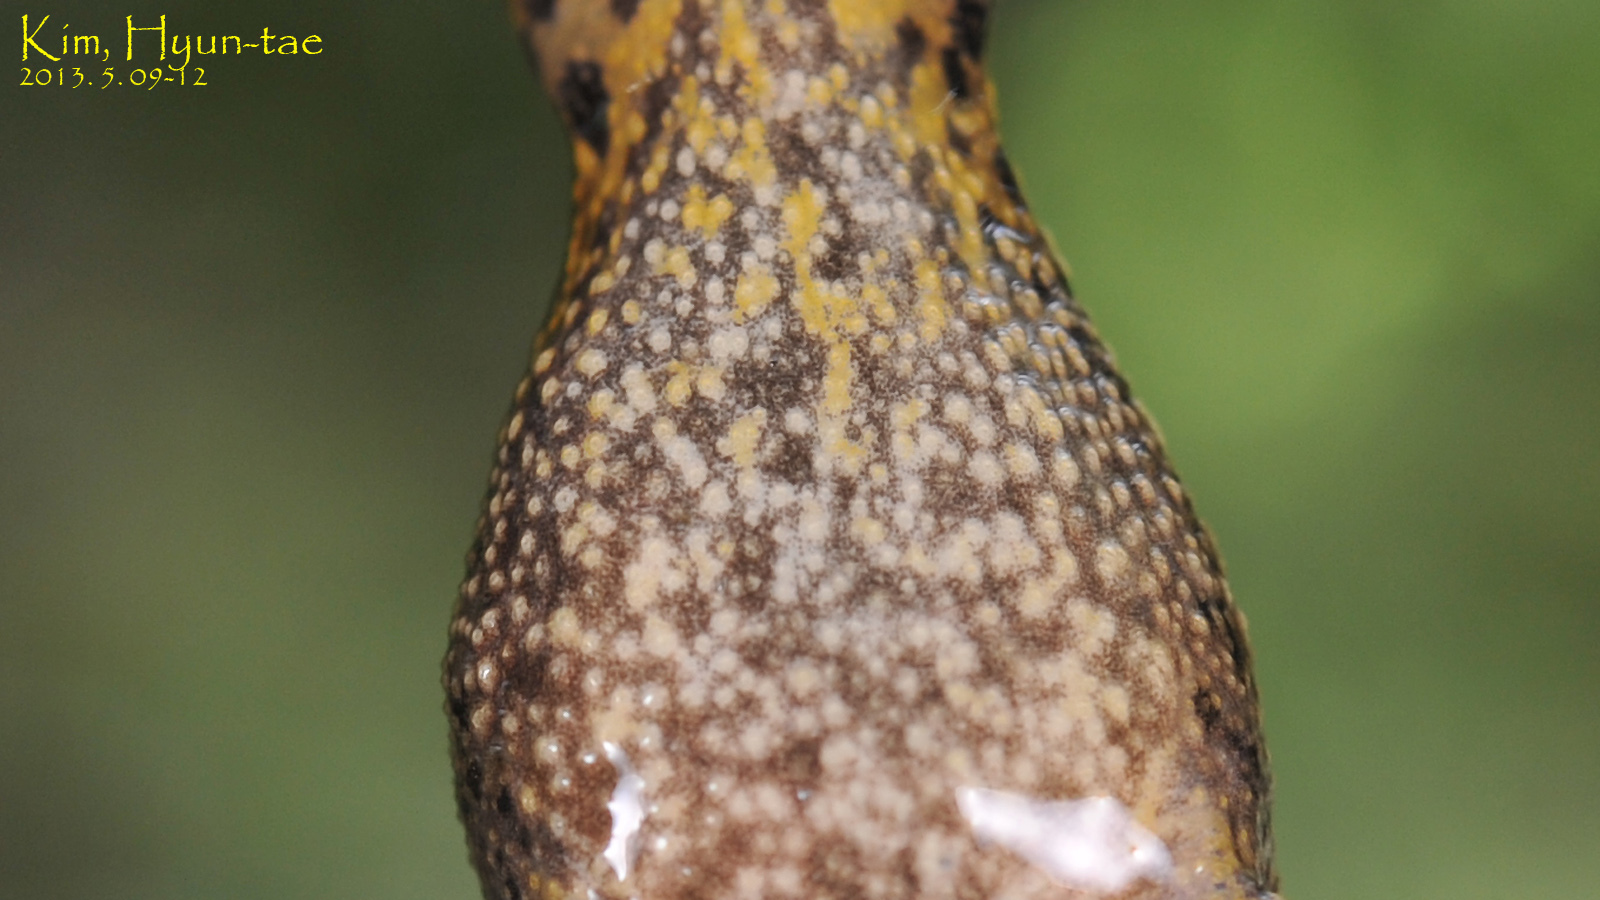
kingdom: Animalia
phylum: Chordata
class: Amphibia
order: Anura
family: Ranidae
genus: Glandirana
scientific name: Glandirana emeljanovi
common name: Northeast china rough-skinned frog
